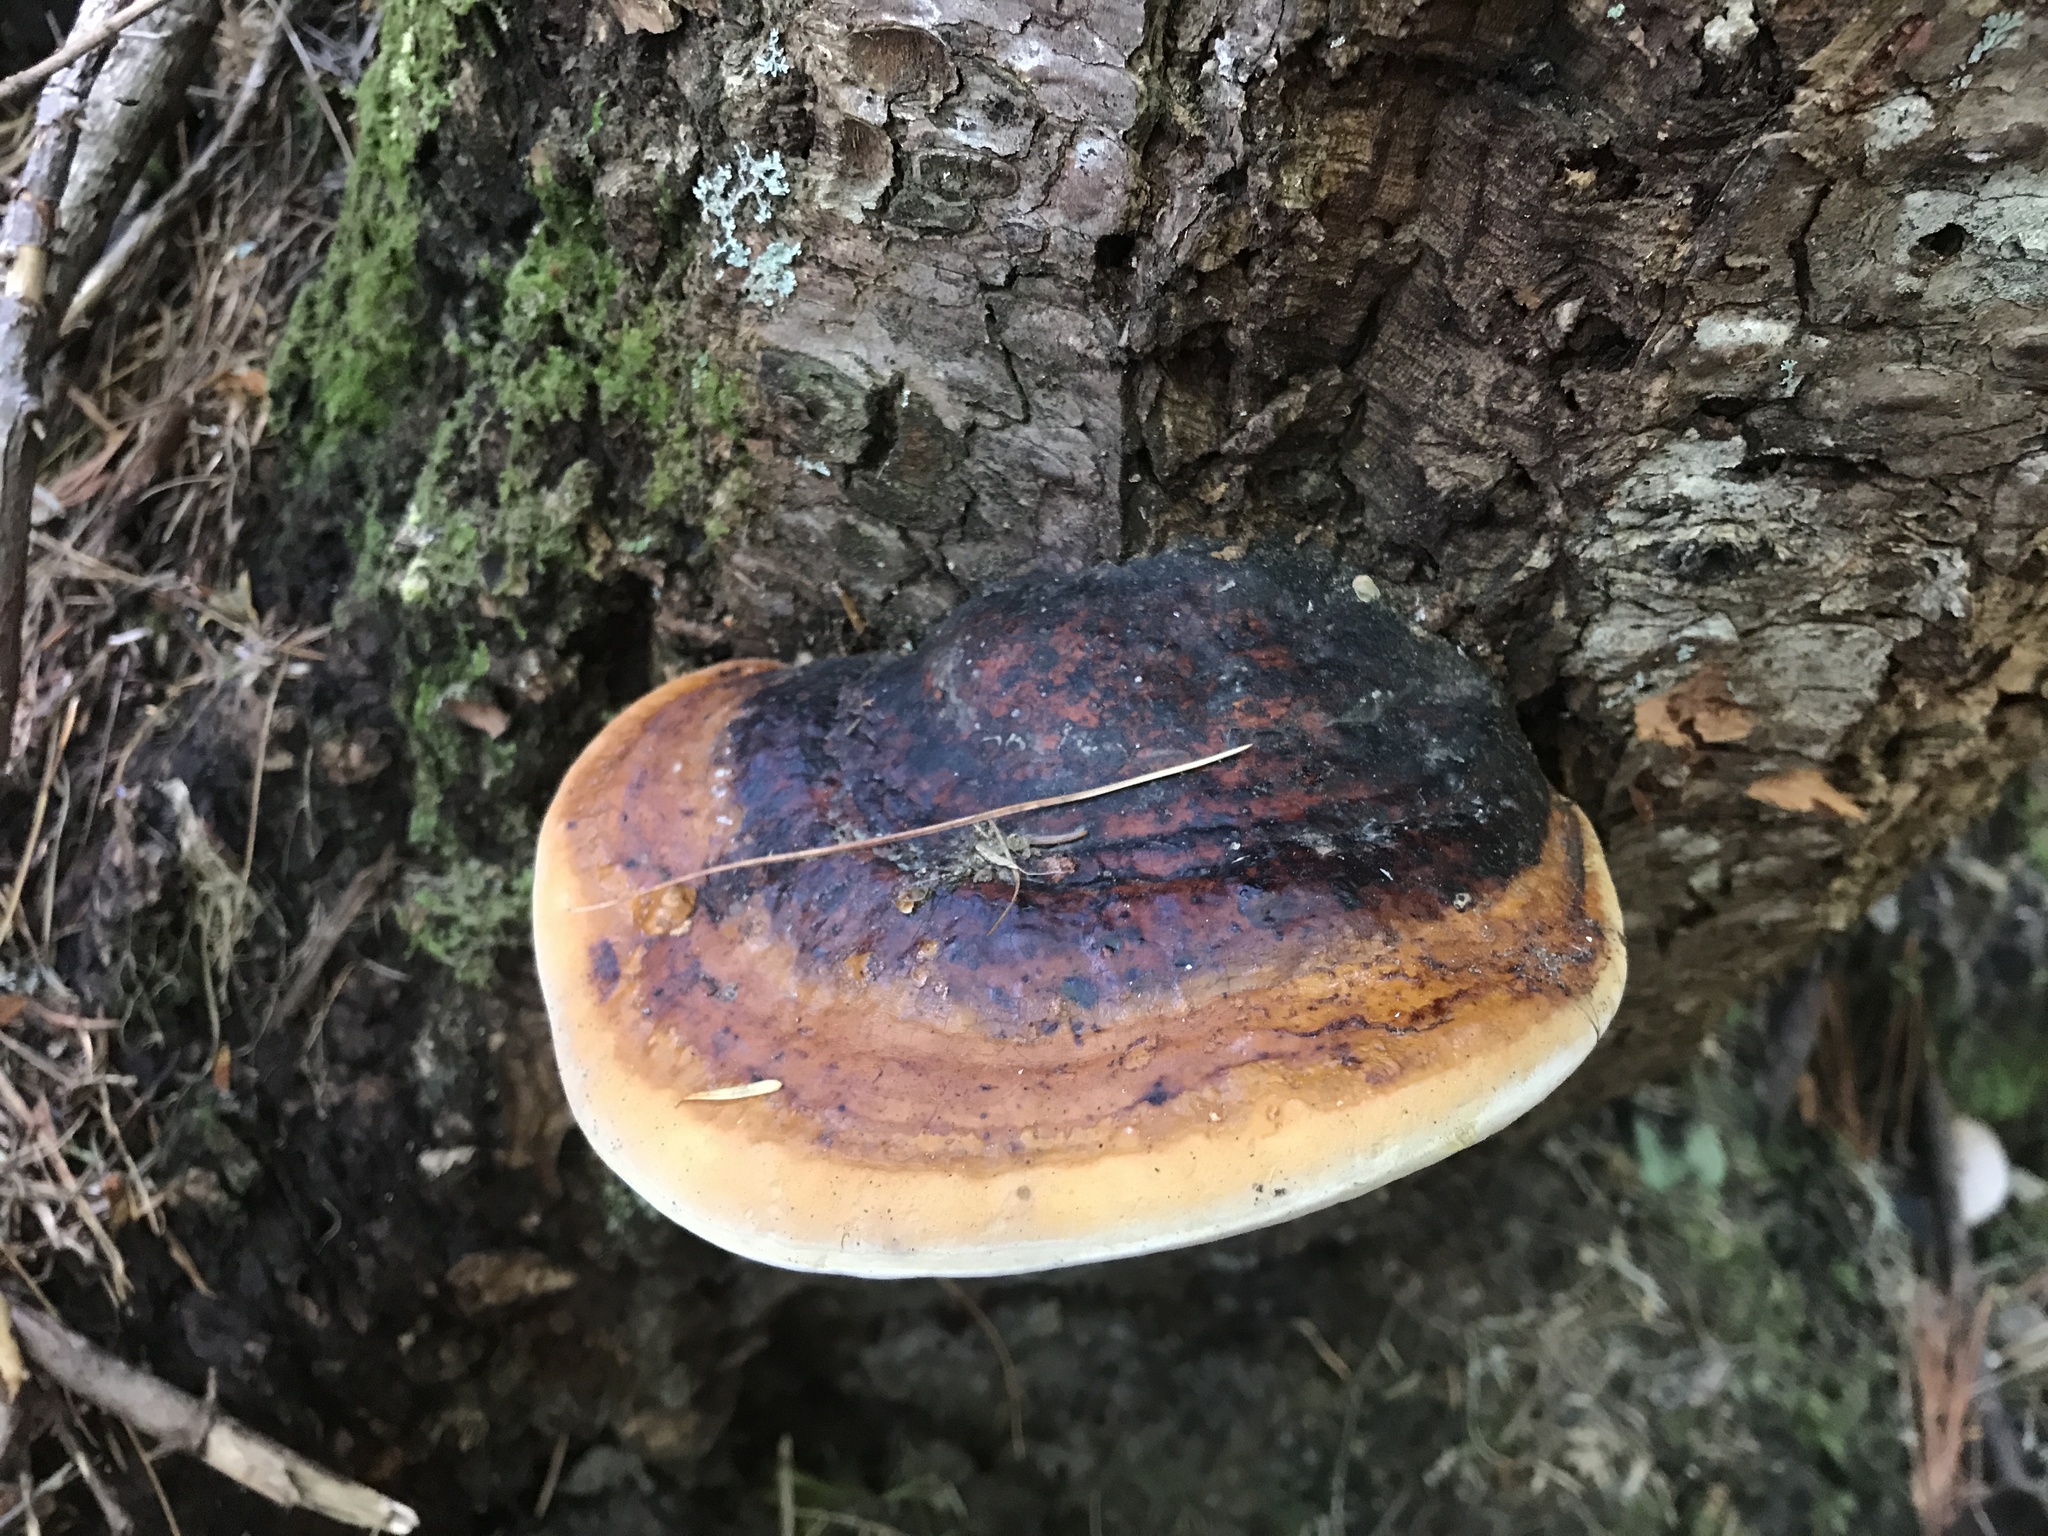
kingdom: Fungi
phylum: Basidiomycota
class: Agaricomycetes
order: Polyporales
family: Fomitopsidaceae
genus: Fomitopsis
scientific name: Fomitopsis mounceae
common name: Northern red belt
